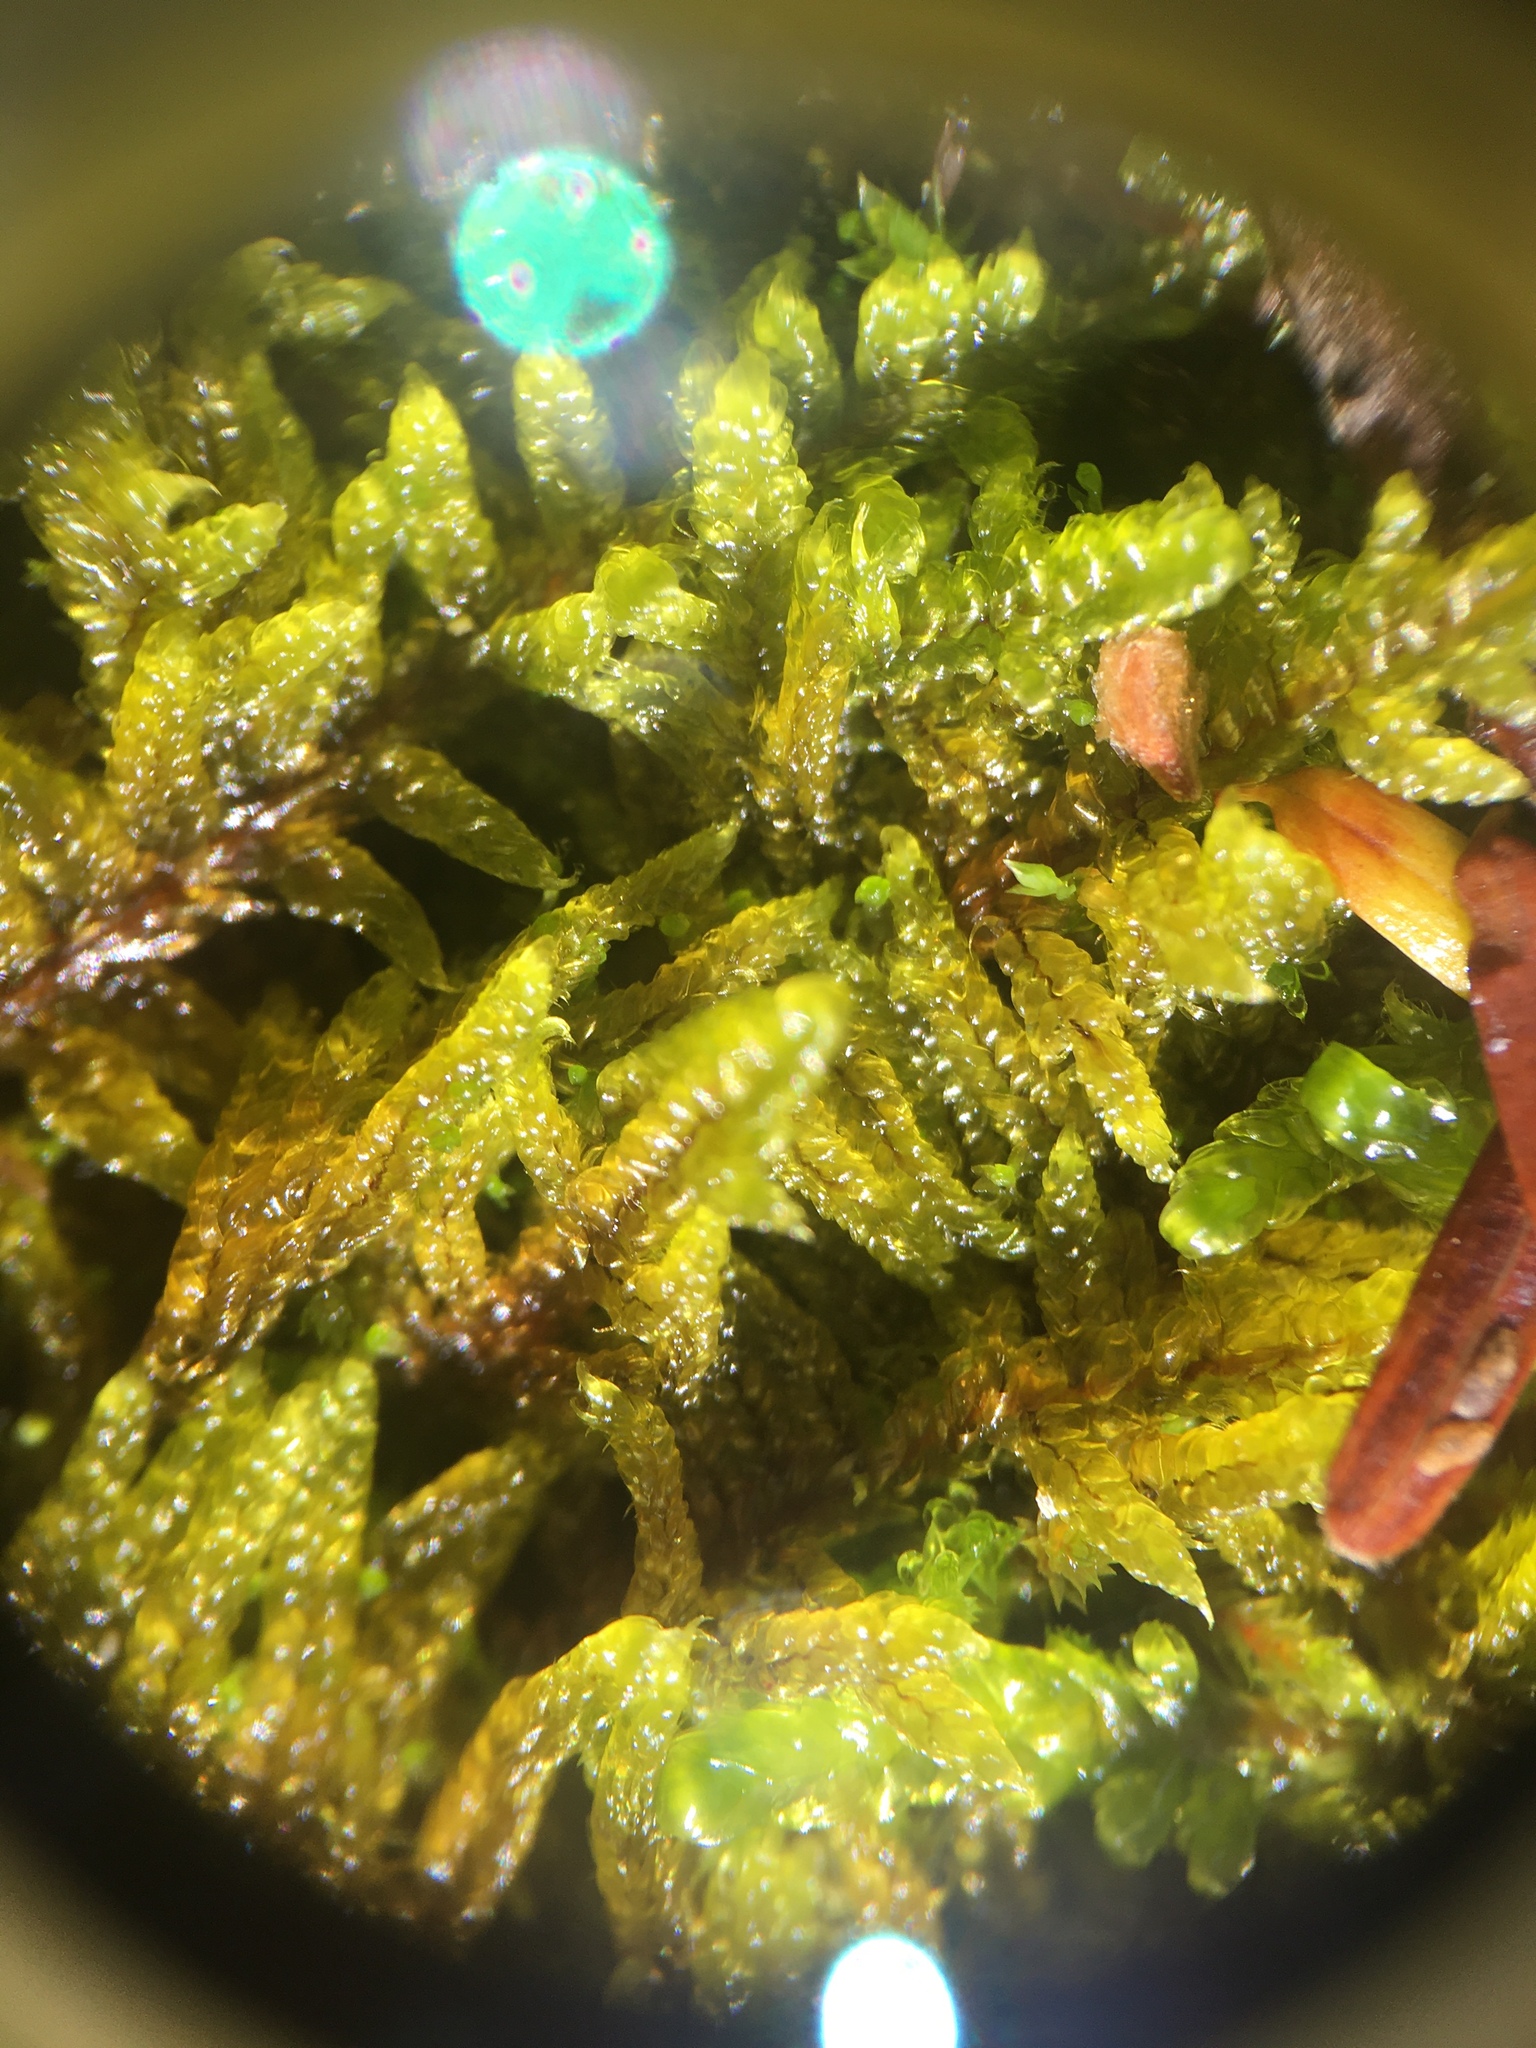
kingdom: Plantae
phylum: Bryophyta
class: Bryopsida
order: Hypnales
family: Callicladiaceae
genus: Callicladium
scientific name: Callicladium imponens
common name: Brocade moss
